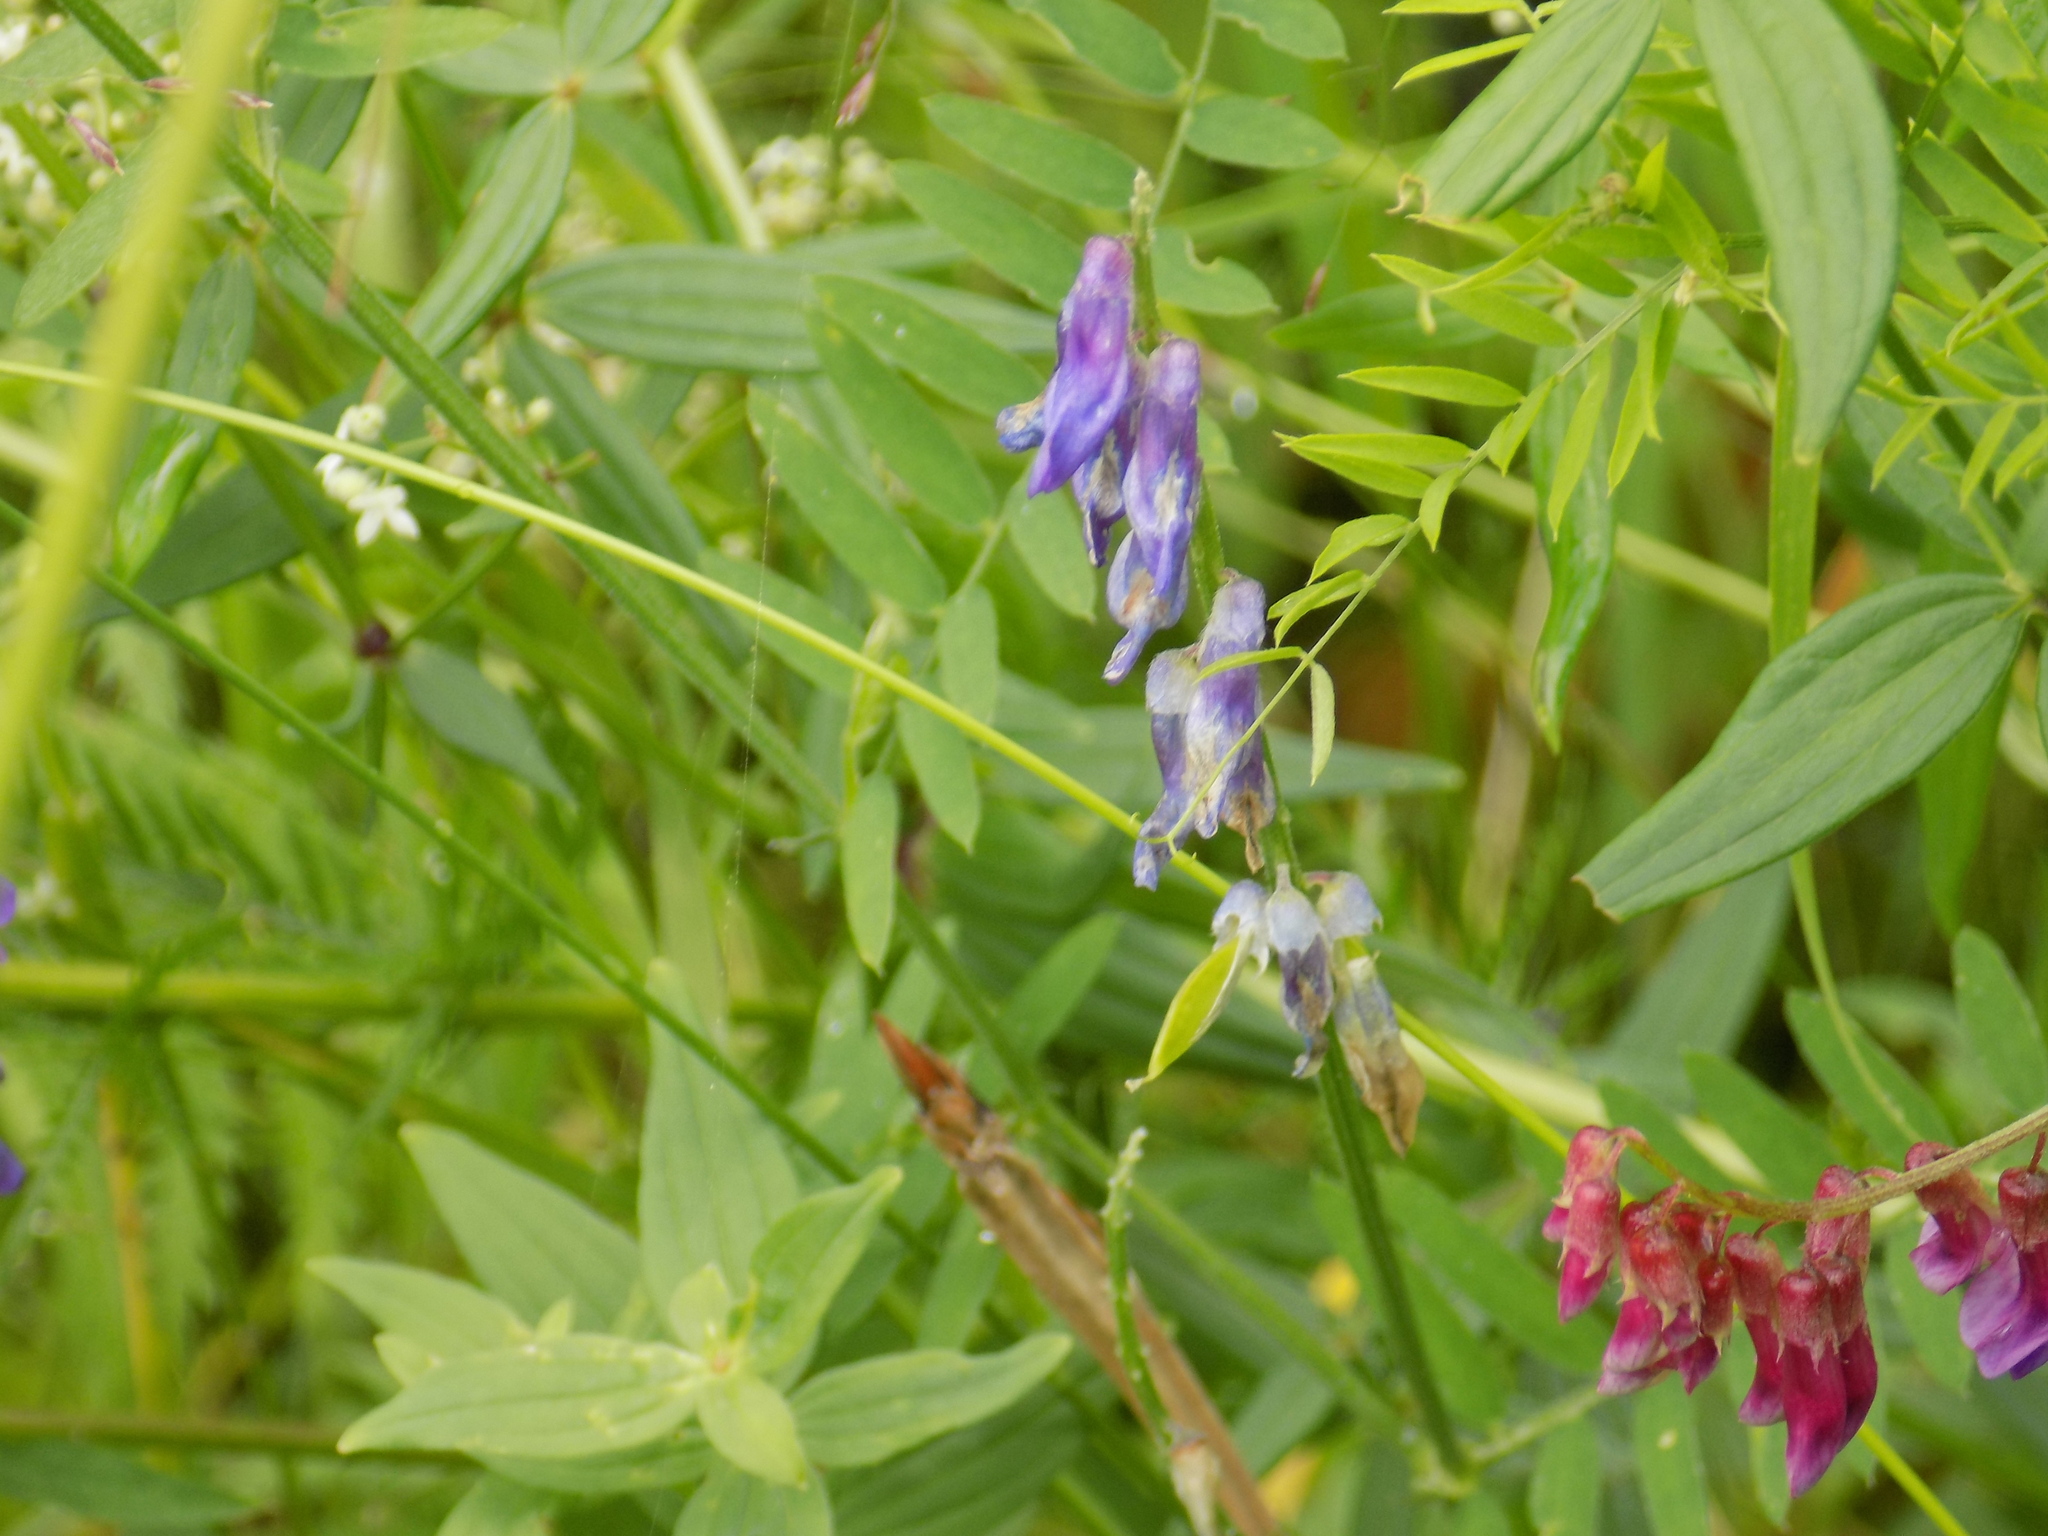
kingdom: Plantae
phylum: Tracheophyta
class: Magnoliopsida
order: Fabales
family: Fabaceae
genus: Vicia
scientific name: Vicia cracca
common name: Bird vetch
